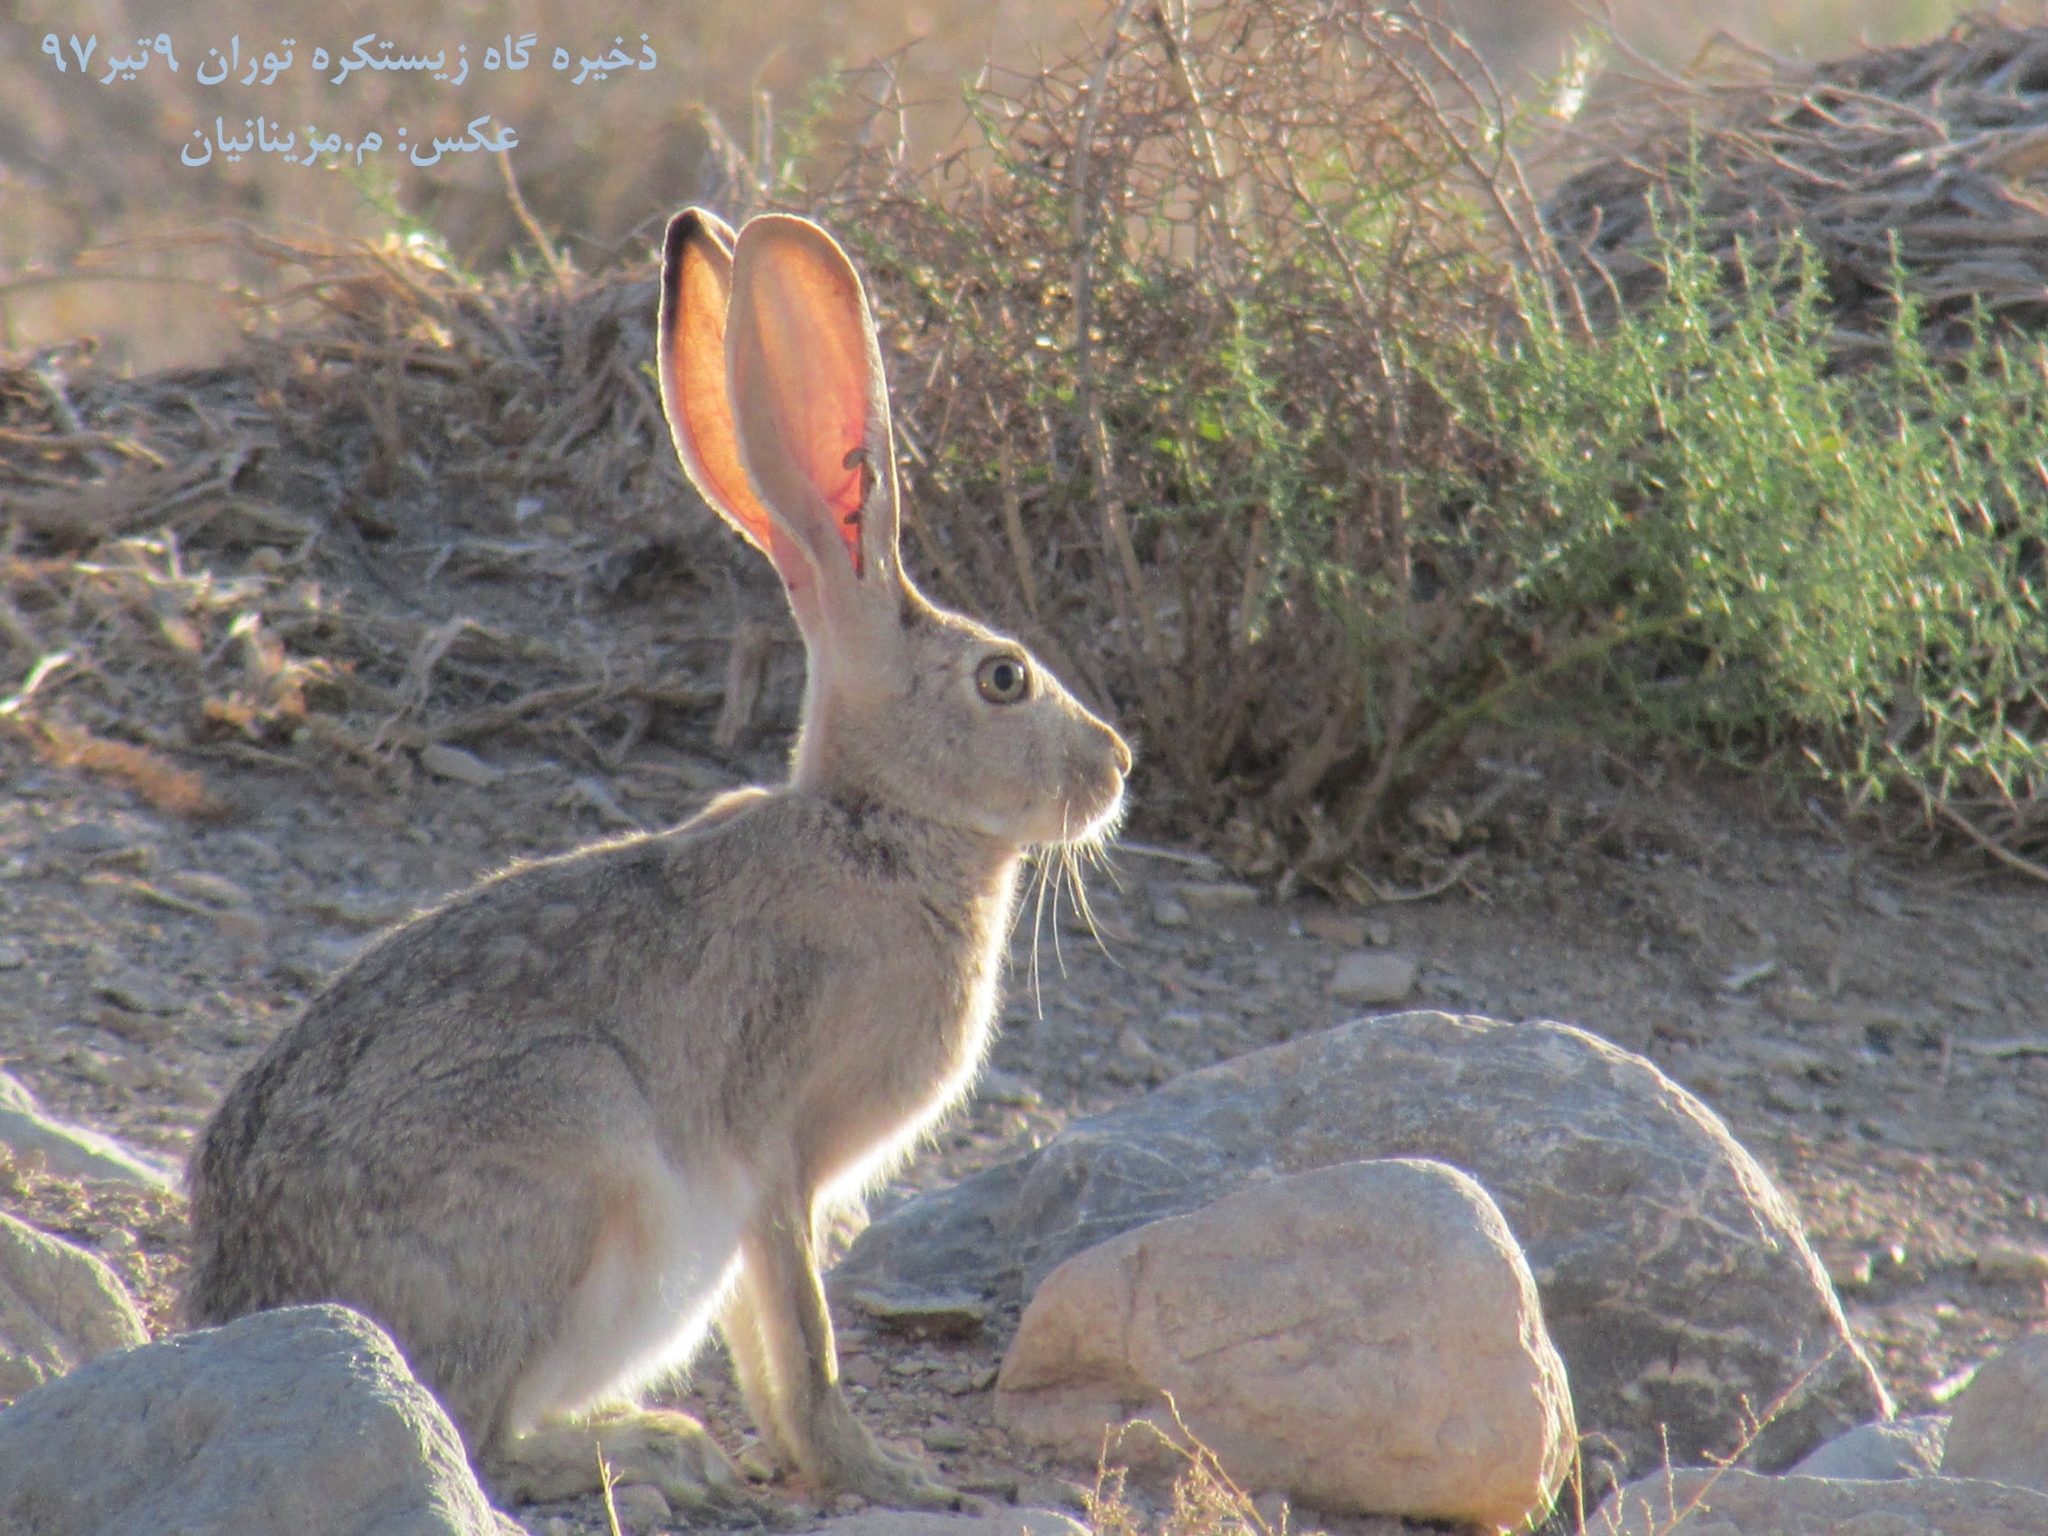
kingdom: Animalia
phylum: Chordata
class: Mammalia
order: Lagomorpha
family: Leporidae
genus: Lepus
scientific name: Lepus capensis
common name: Cape hare
